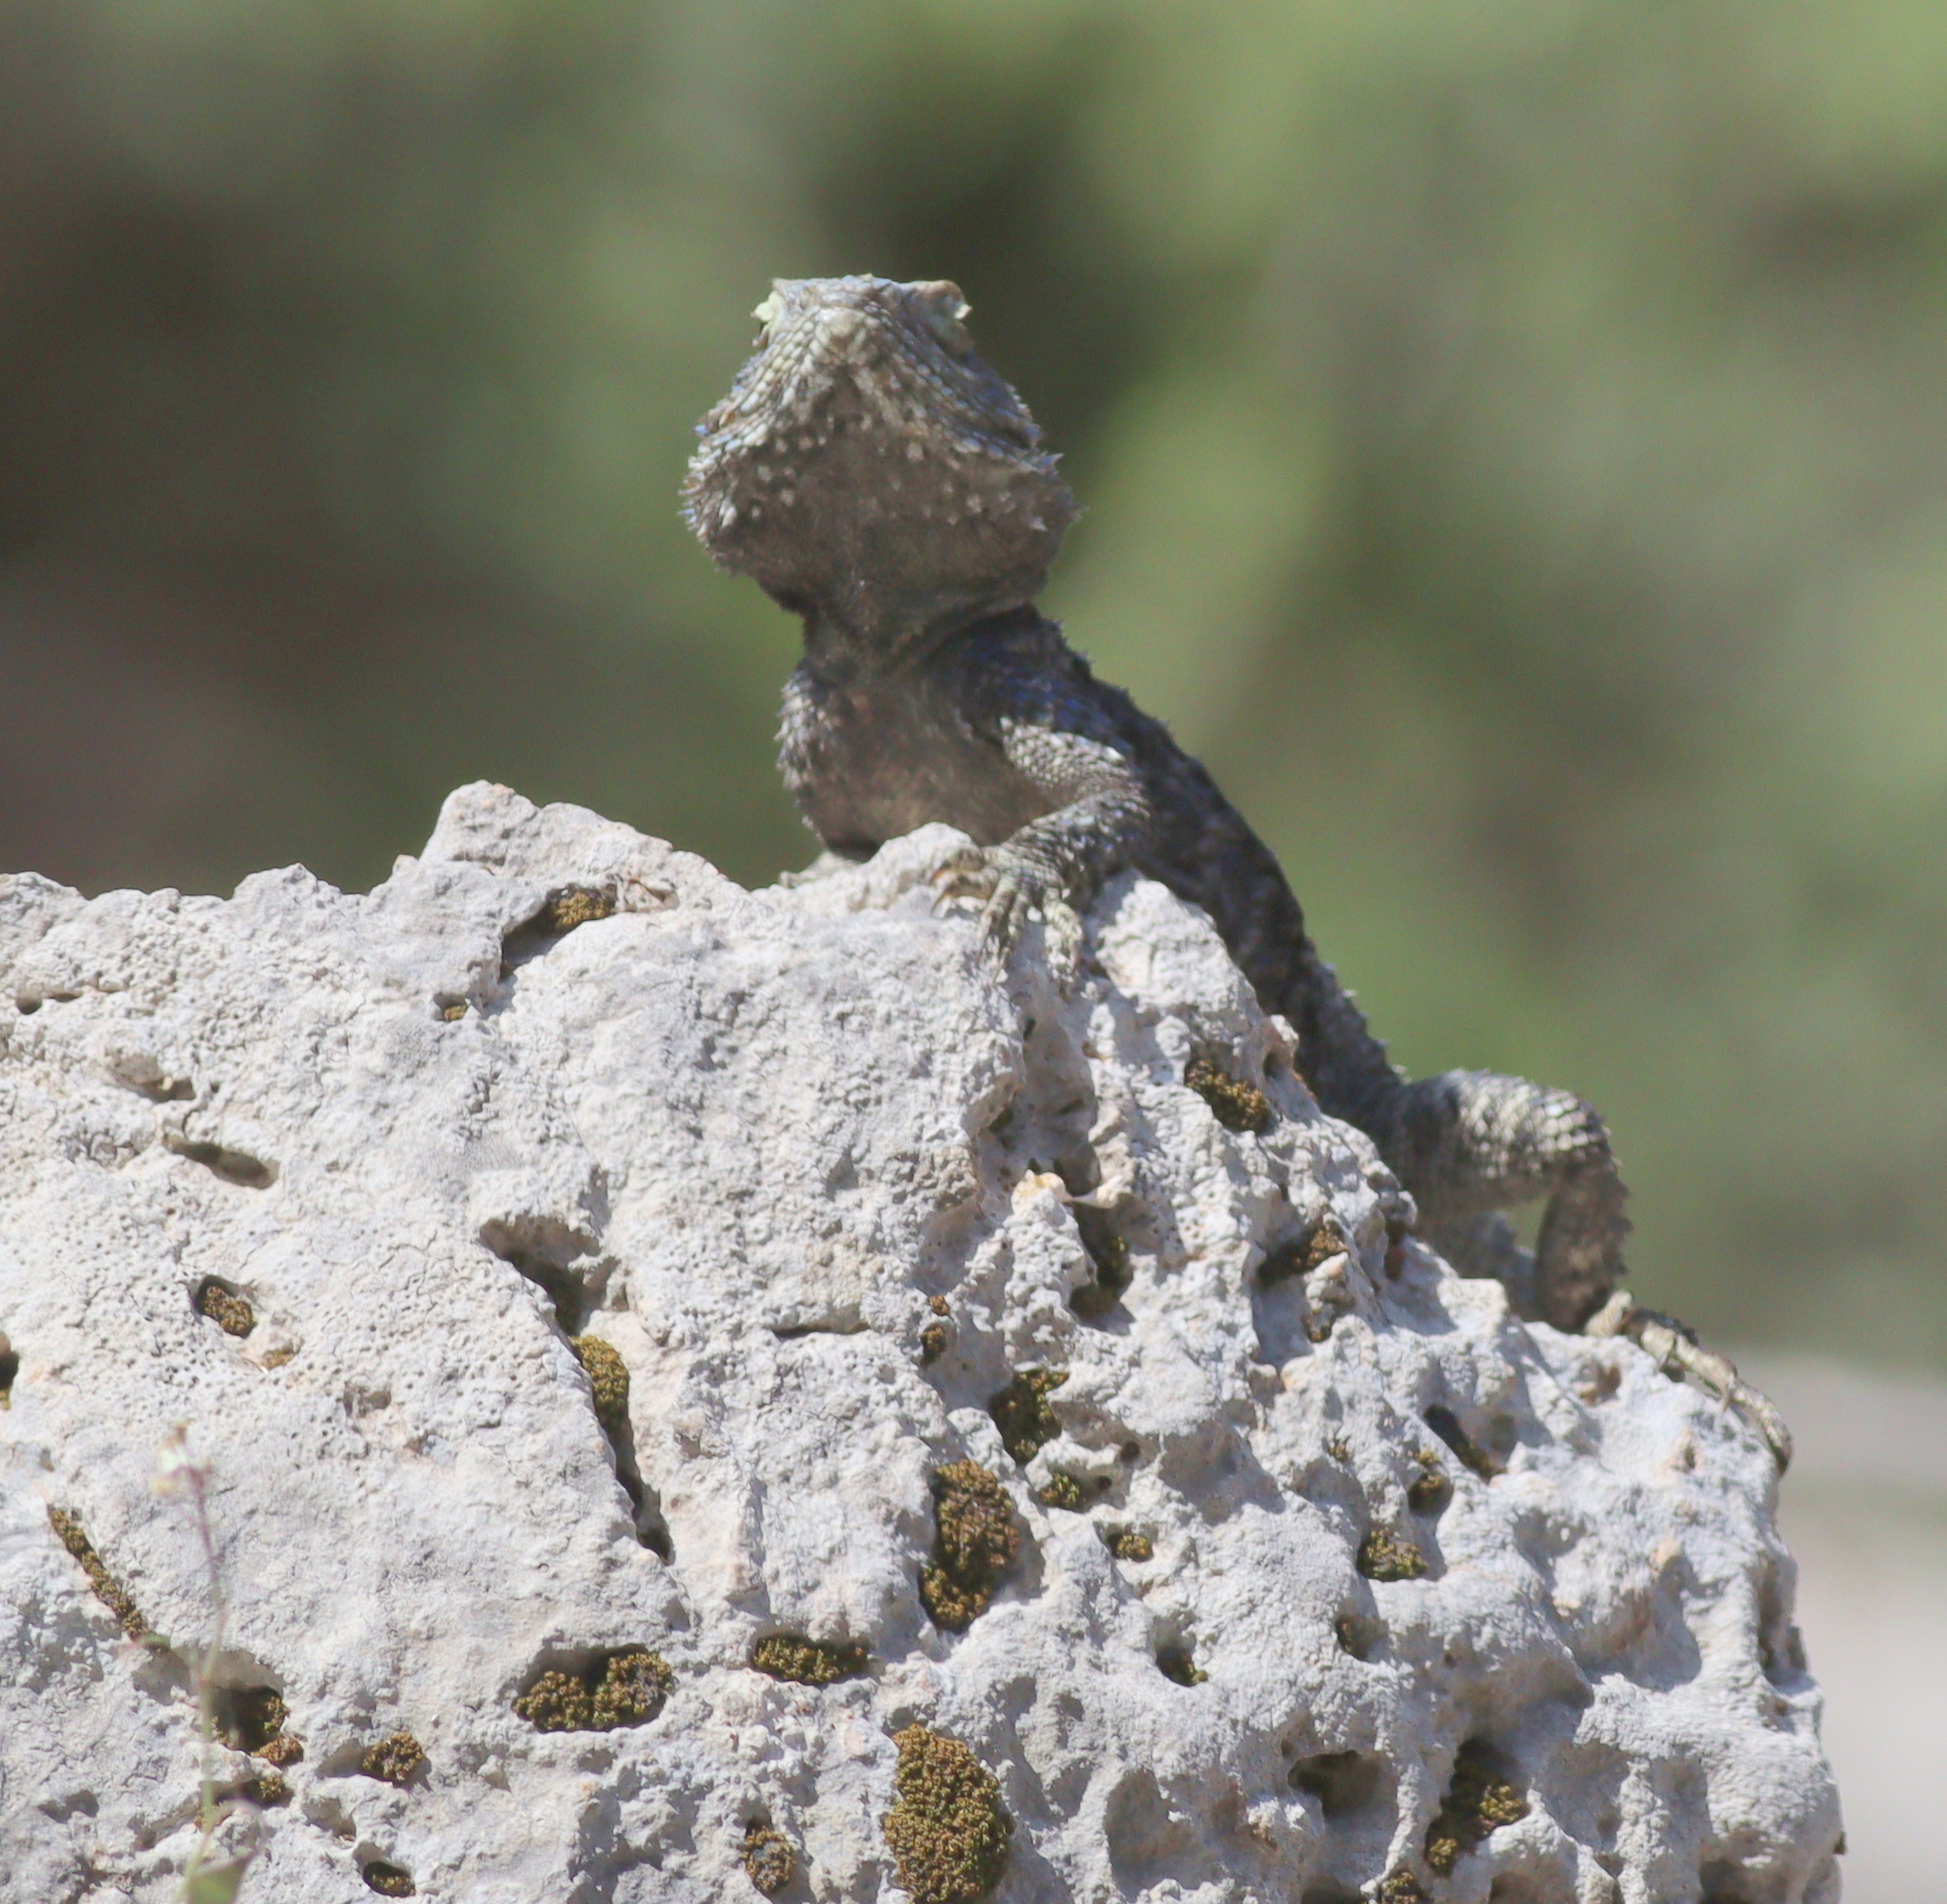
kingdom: Animalia
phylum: Chordata
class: Squamata
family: Agamidae
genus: Stellagama
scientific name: Stellagama stellio
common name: Starred agama
